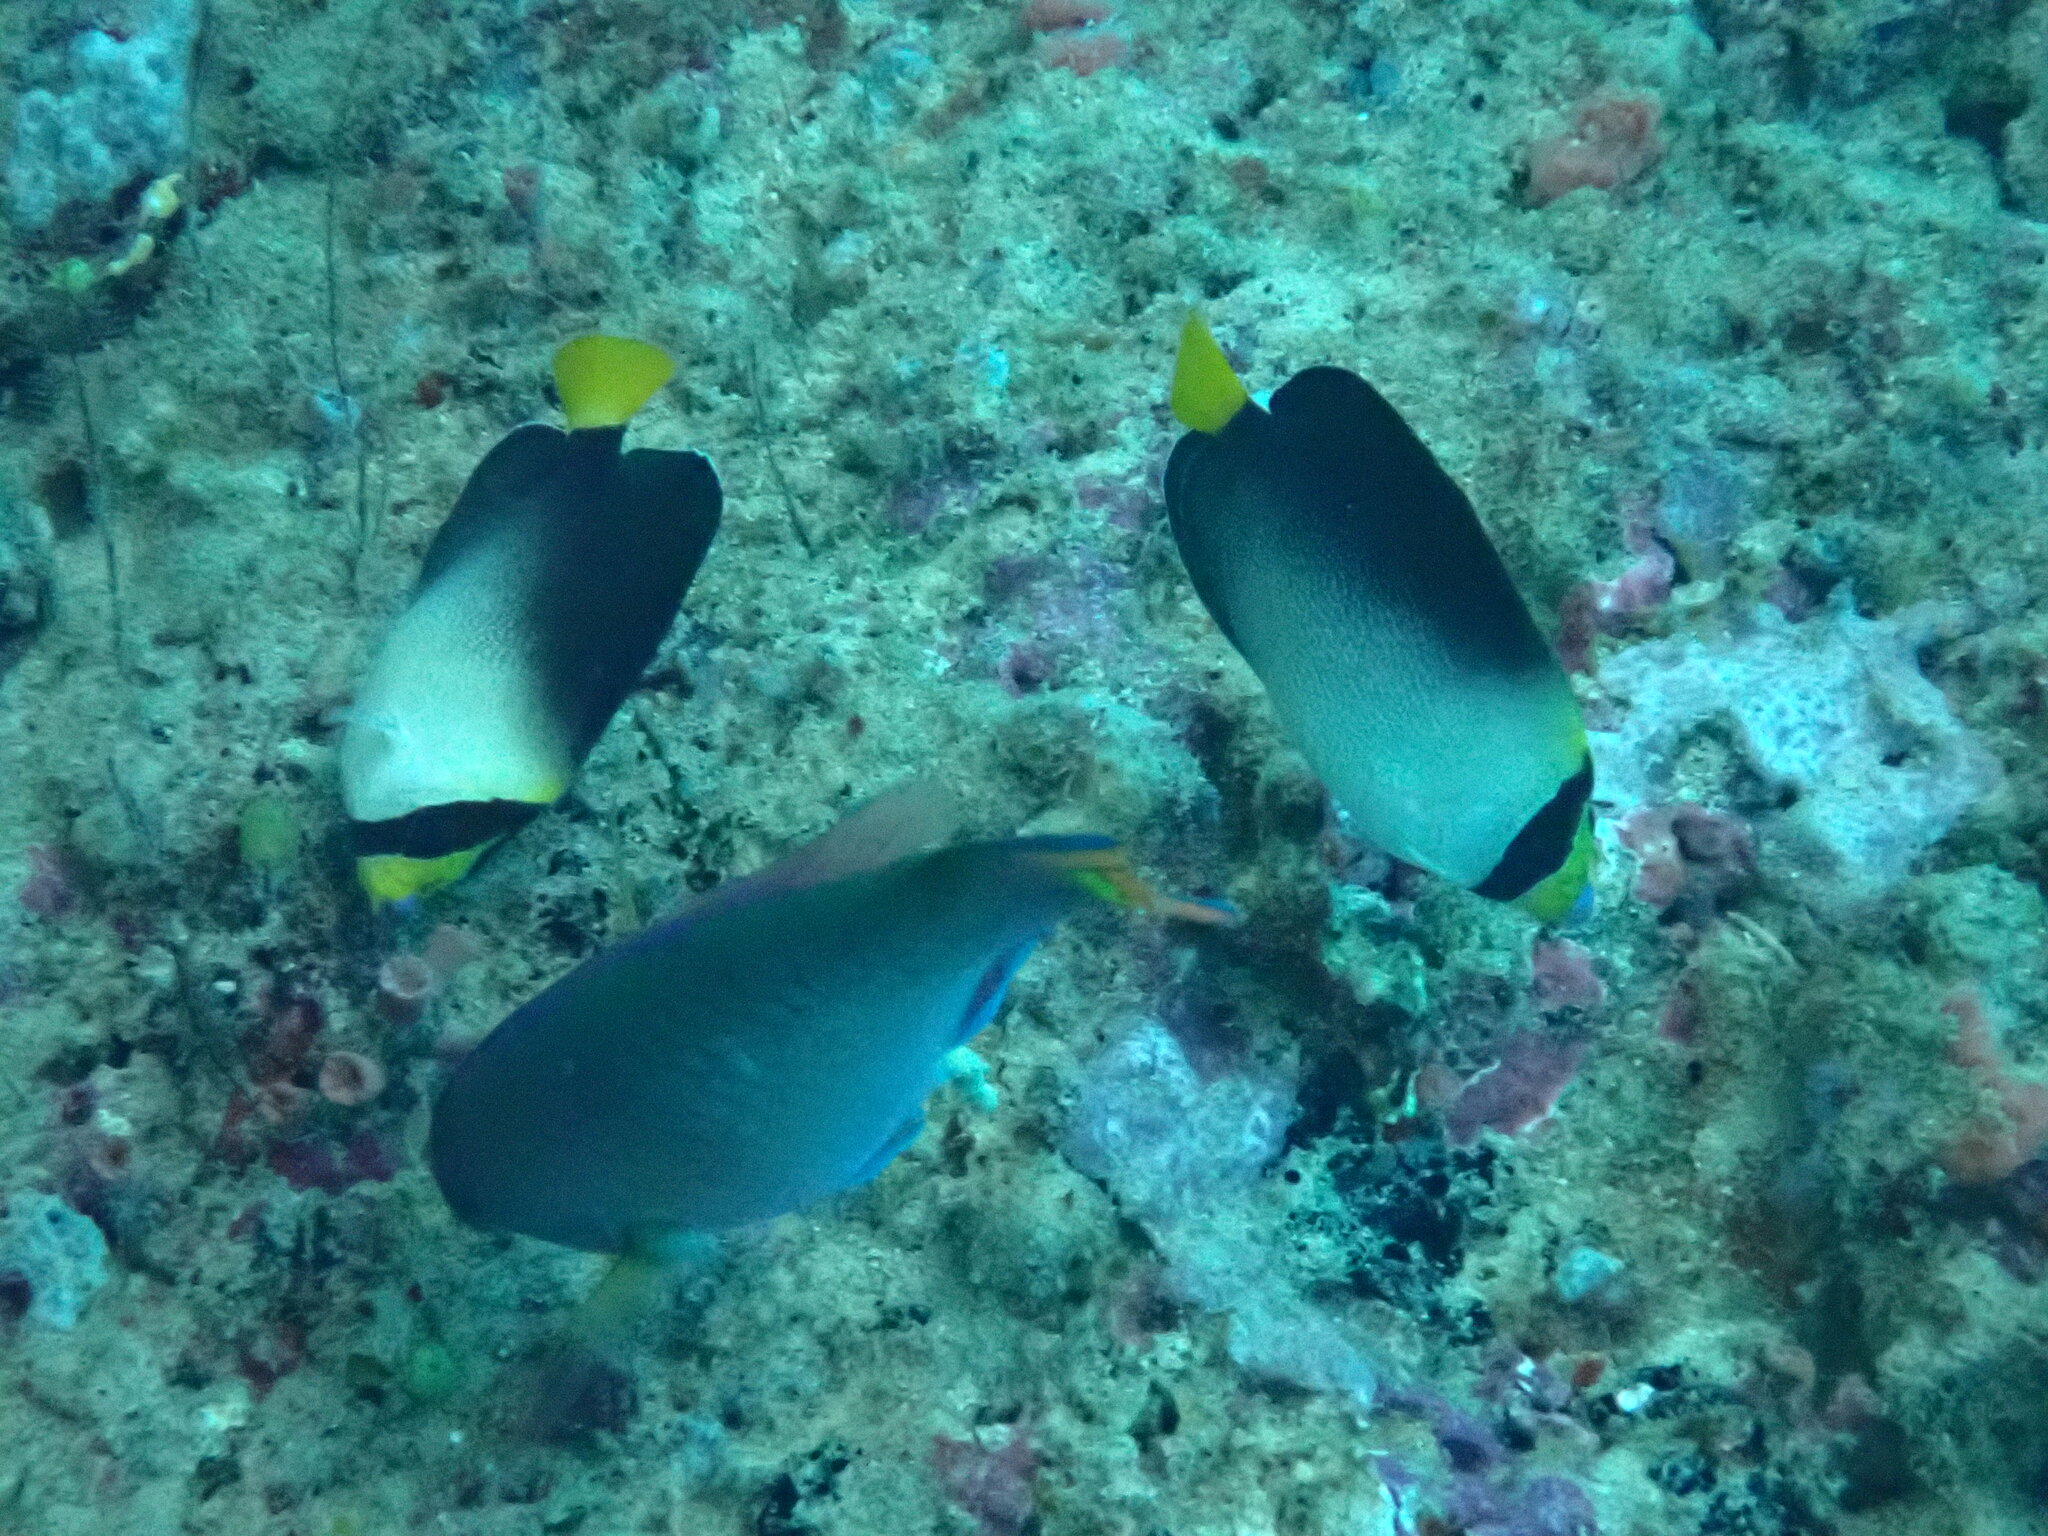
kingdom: Animalia
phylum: Chordata
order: Perciformes
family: Pomacanthidae
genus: Chaetodontoplus
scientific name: Chaetodontoplus mesoleucus
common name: Vermiculated angelfish
